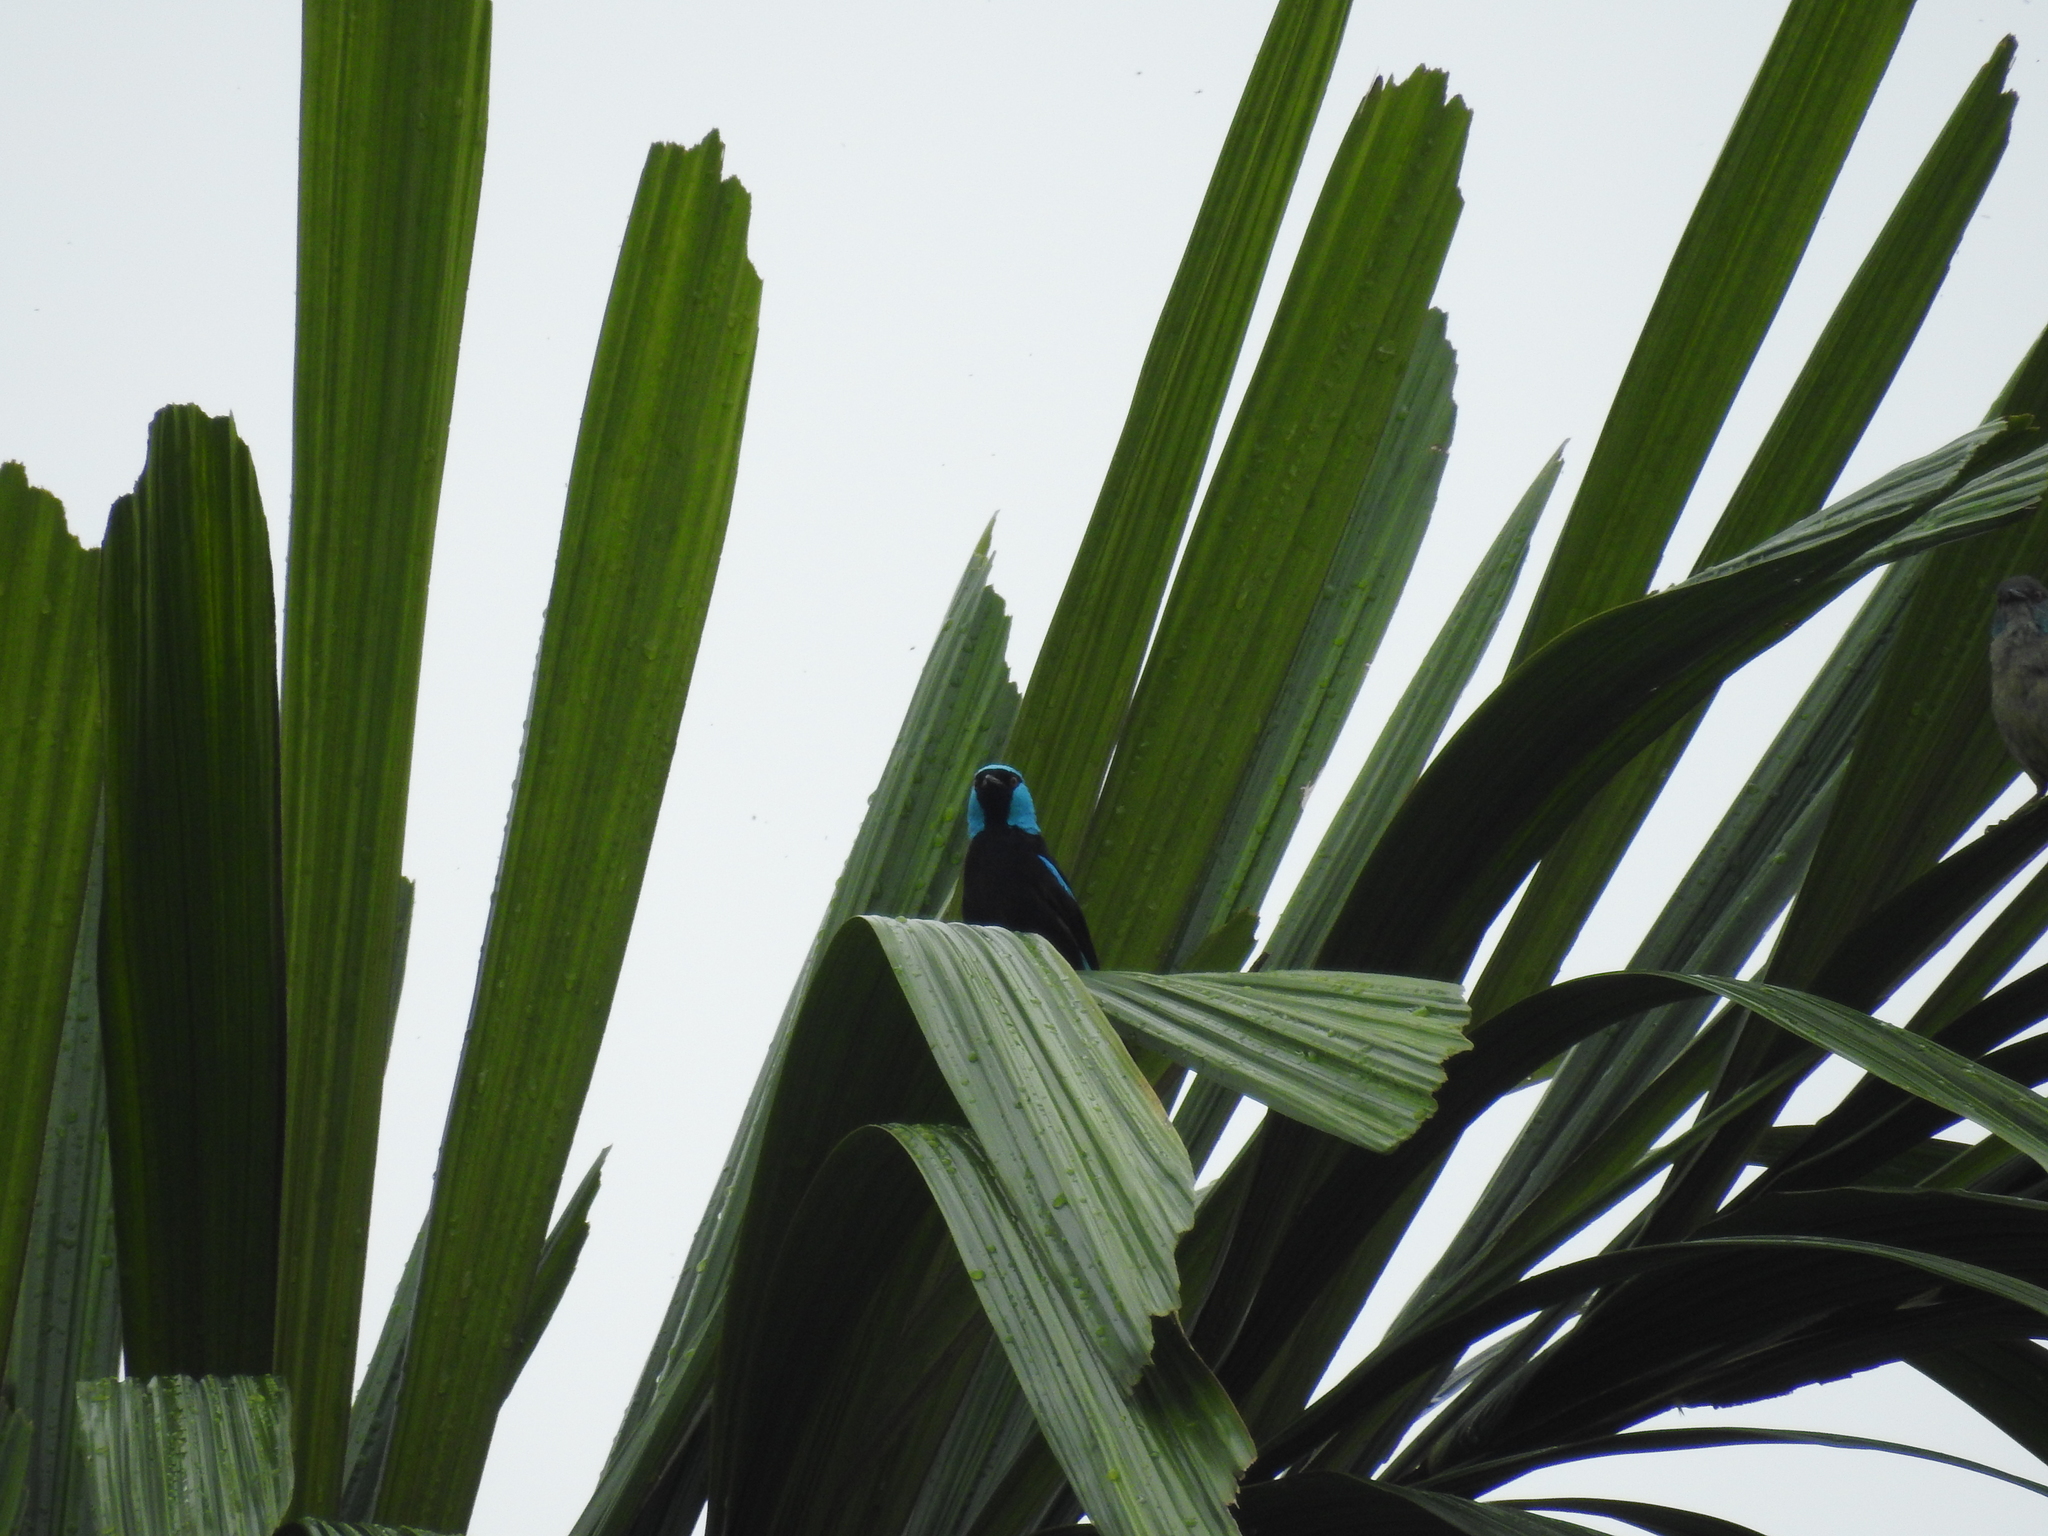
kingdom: Animalia
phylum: Chordata
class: Aves
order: Passeriformes
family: Thraupidae
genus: Dacnis
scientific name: Dacnis venusta
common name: Scarlet-thighed dacnis
